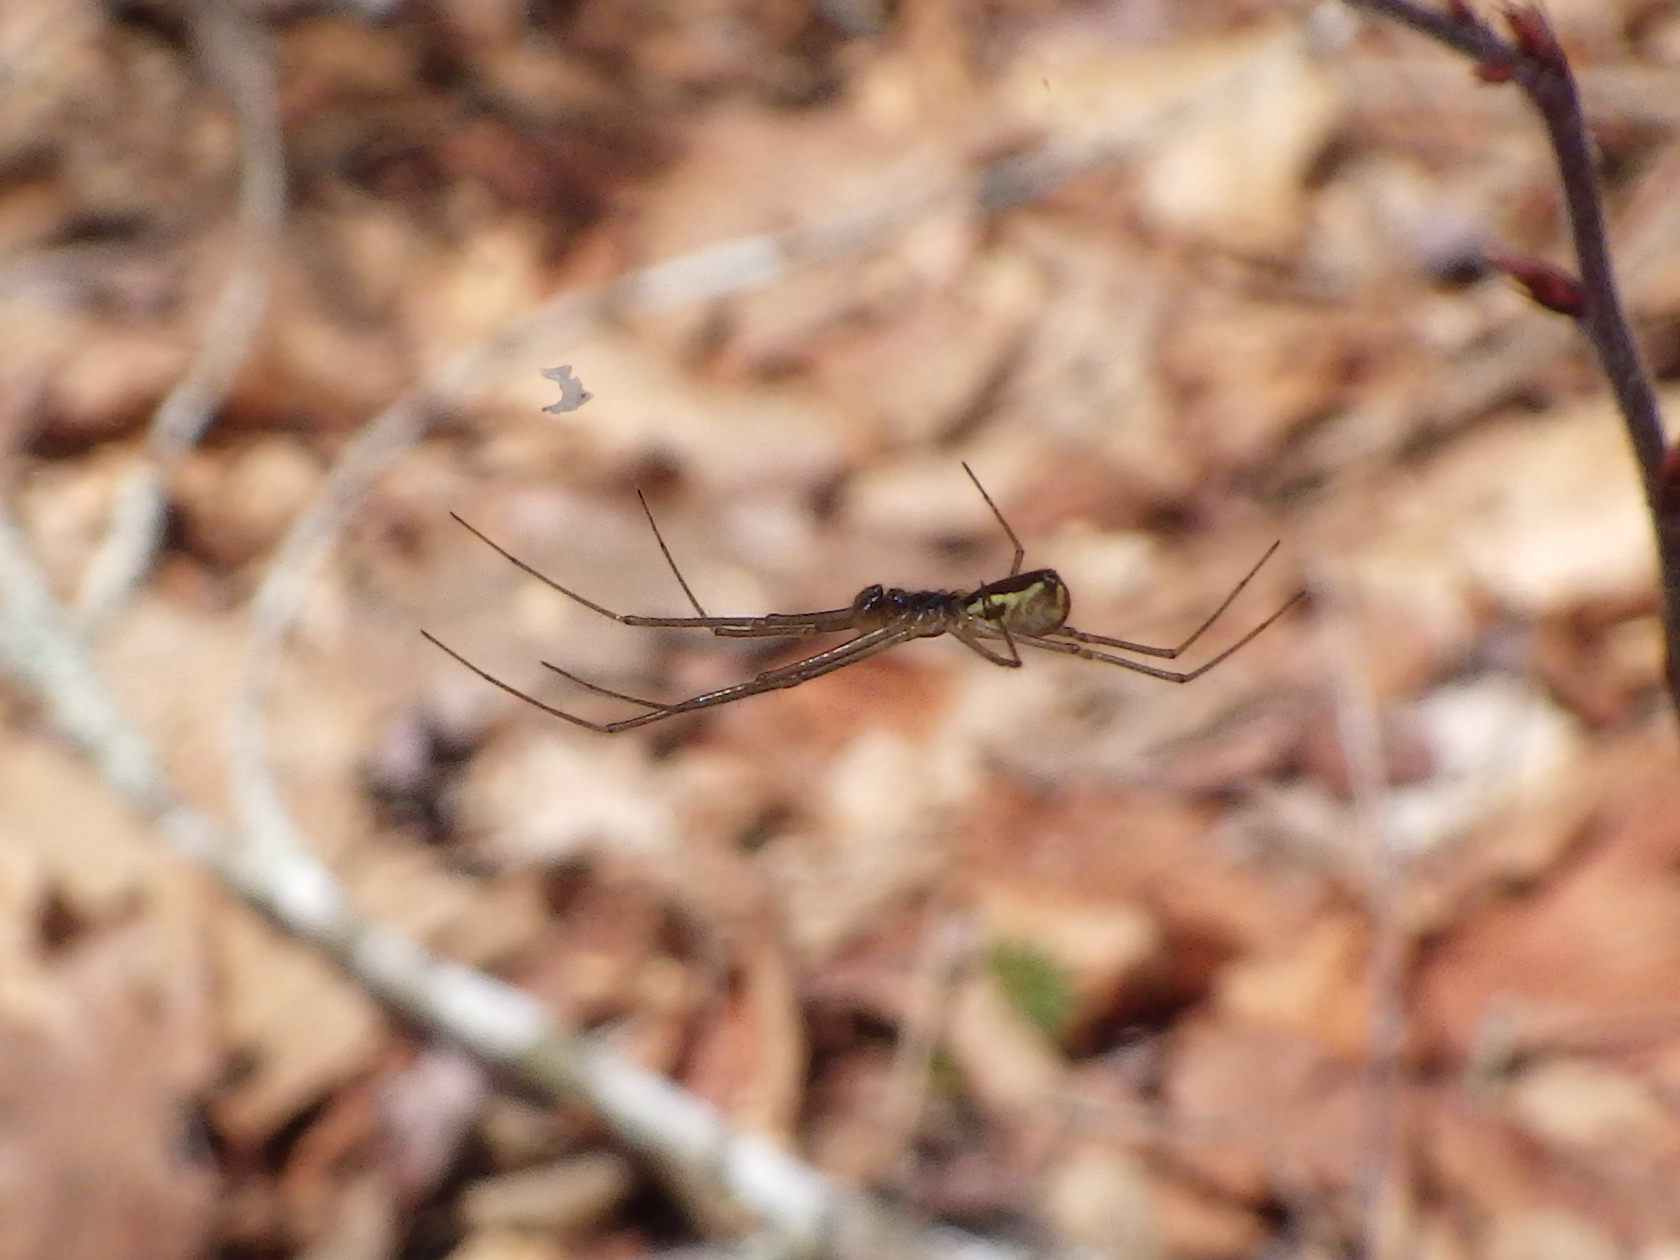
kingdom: Animalia
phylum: Arthropoda
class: Arachnida
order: Araneae
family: Linyphiidae
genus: Neriene
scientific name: Neriene radiata
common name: Filmy dome spider
